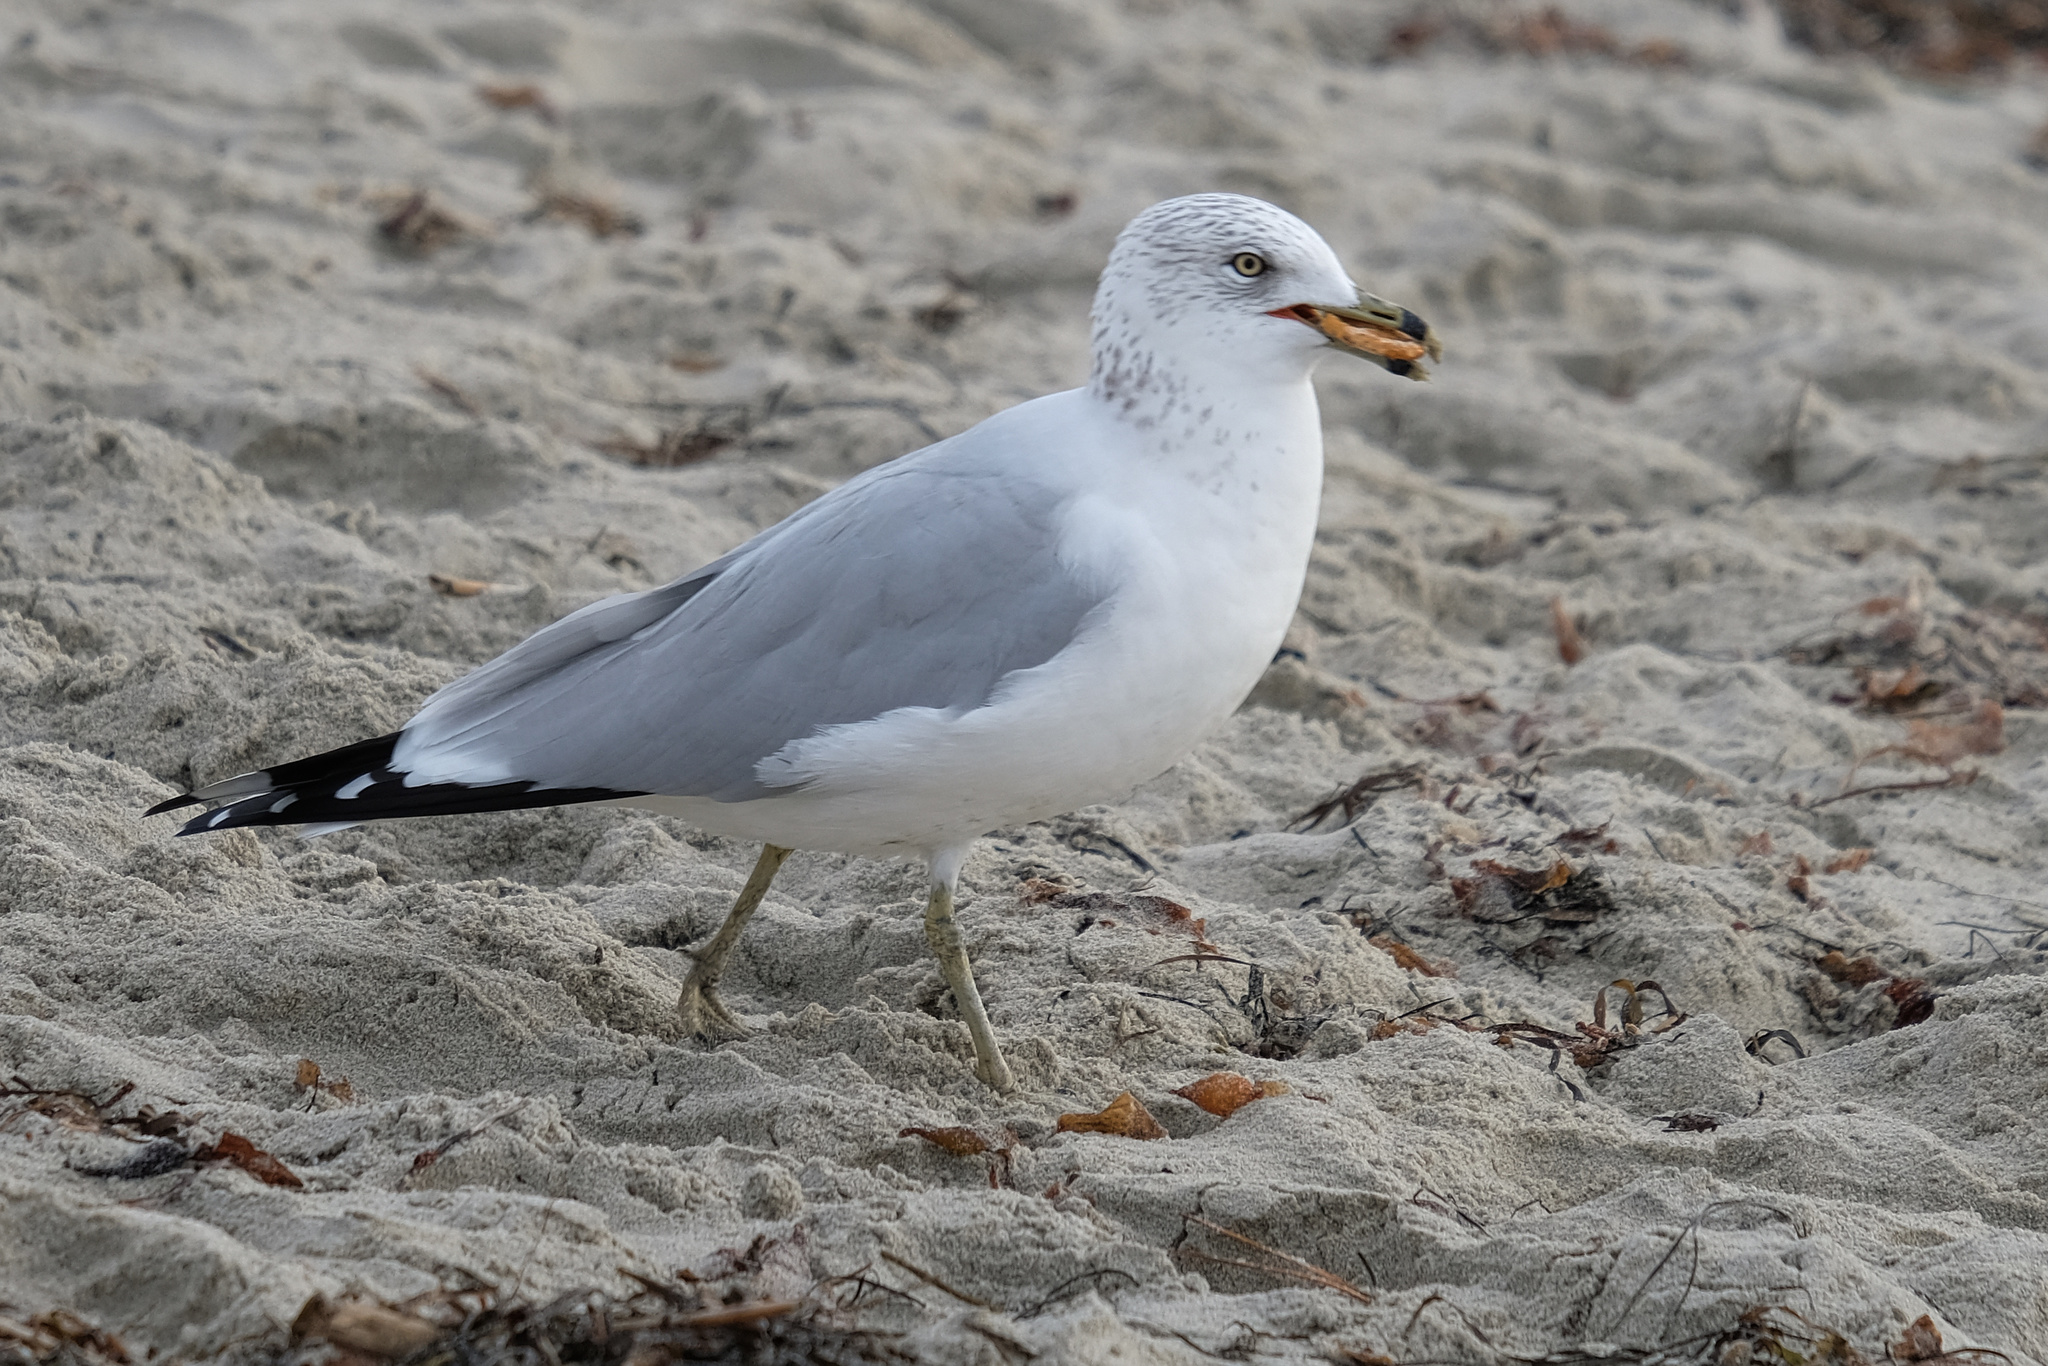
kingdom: Animalia
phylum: Chordata
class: Aves
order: Charadriiformes
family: Laridae
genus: Larus
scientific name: Larus delawarensis
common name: Ring-billed gull
